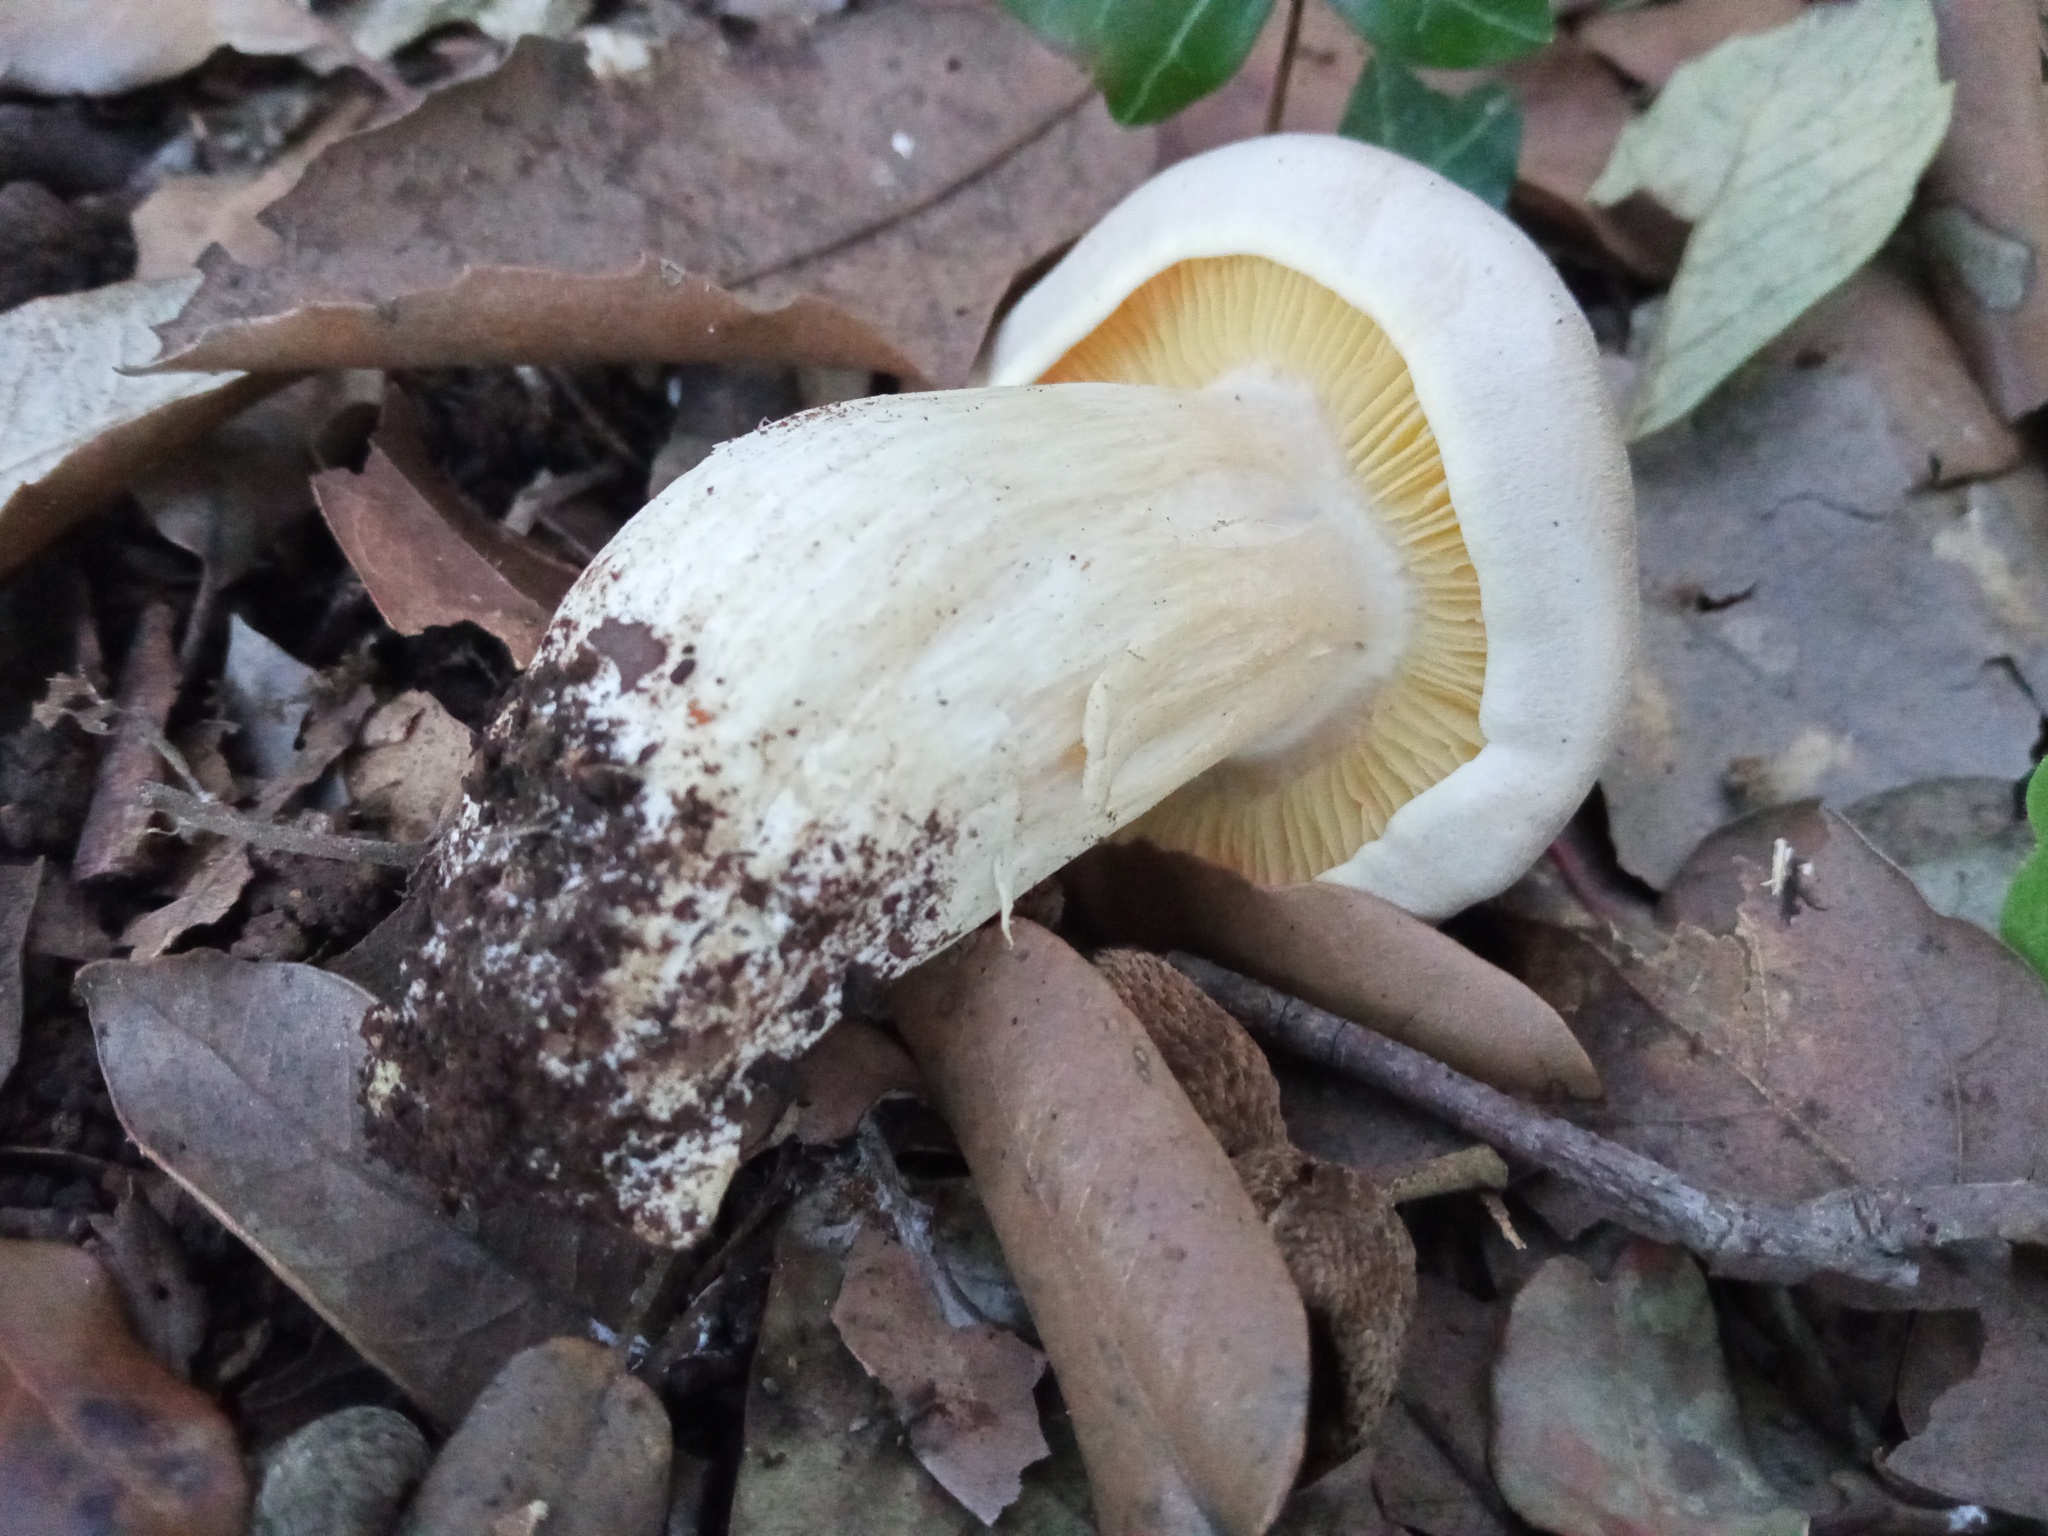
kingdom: Fungi
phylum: Basidiomycota
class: Agaricomycetes
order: Agaricales
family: Entolomataceae
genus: Entoloma
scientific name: Entoloma sinuatum
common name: Livid pinkgill
